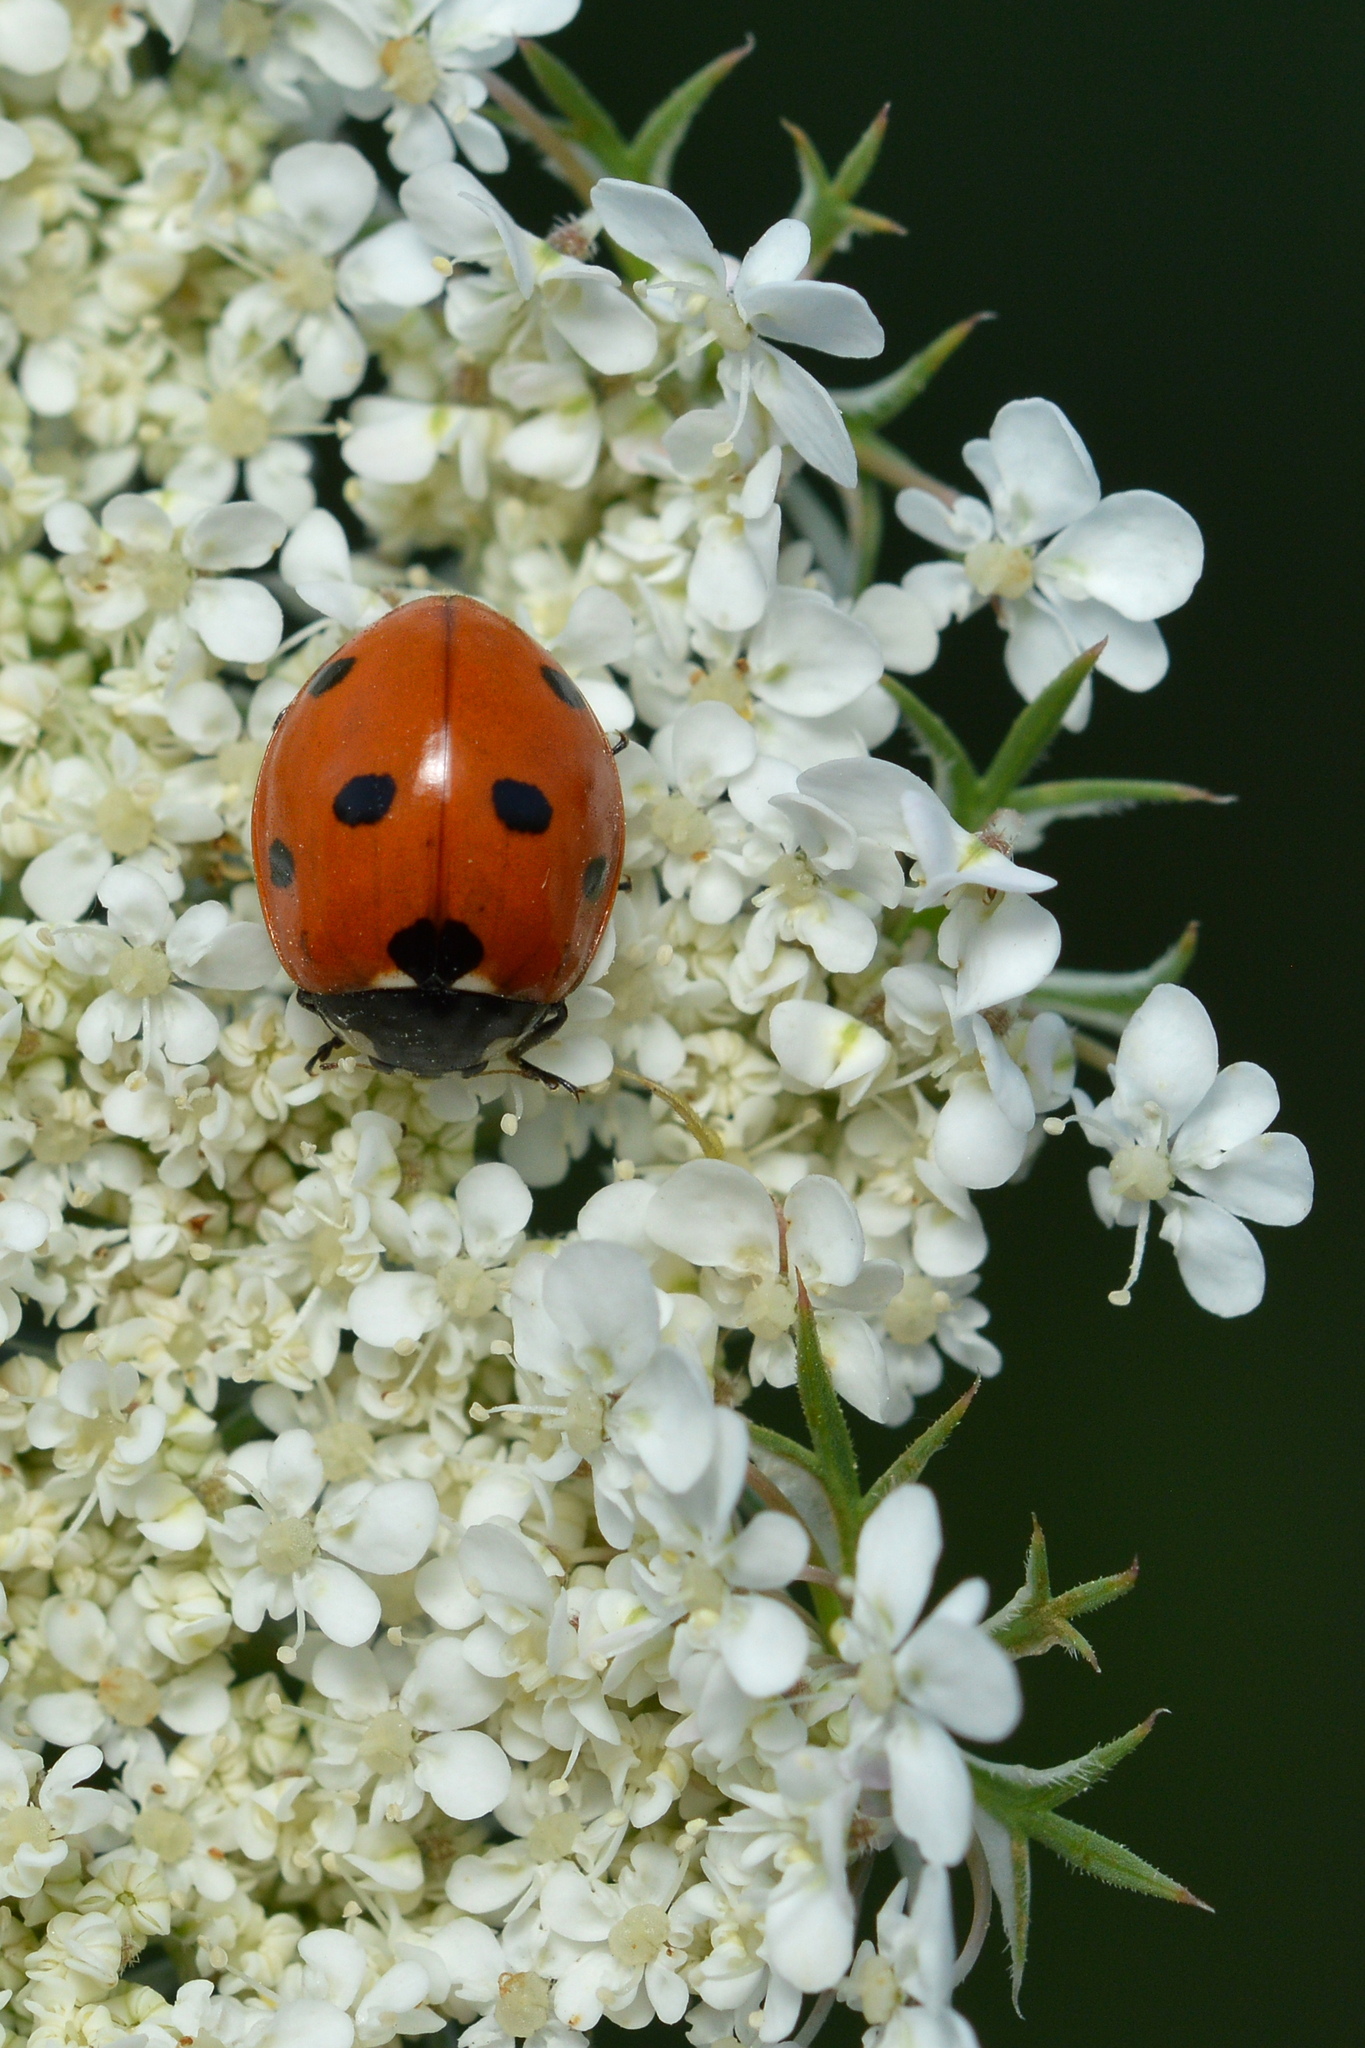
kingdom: Animalia
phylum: Arthropoda
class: Insecta
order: Coleoptera
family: Coccinellidae
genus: Coccinella
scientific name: Coccinella septempunctata
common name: Sevenspotted lady beetle
